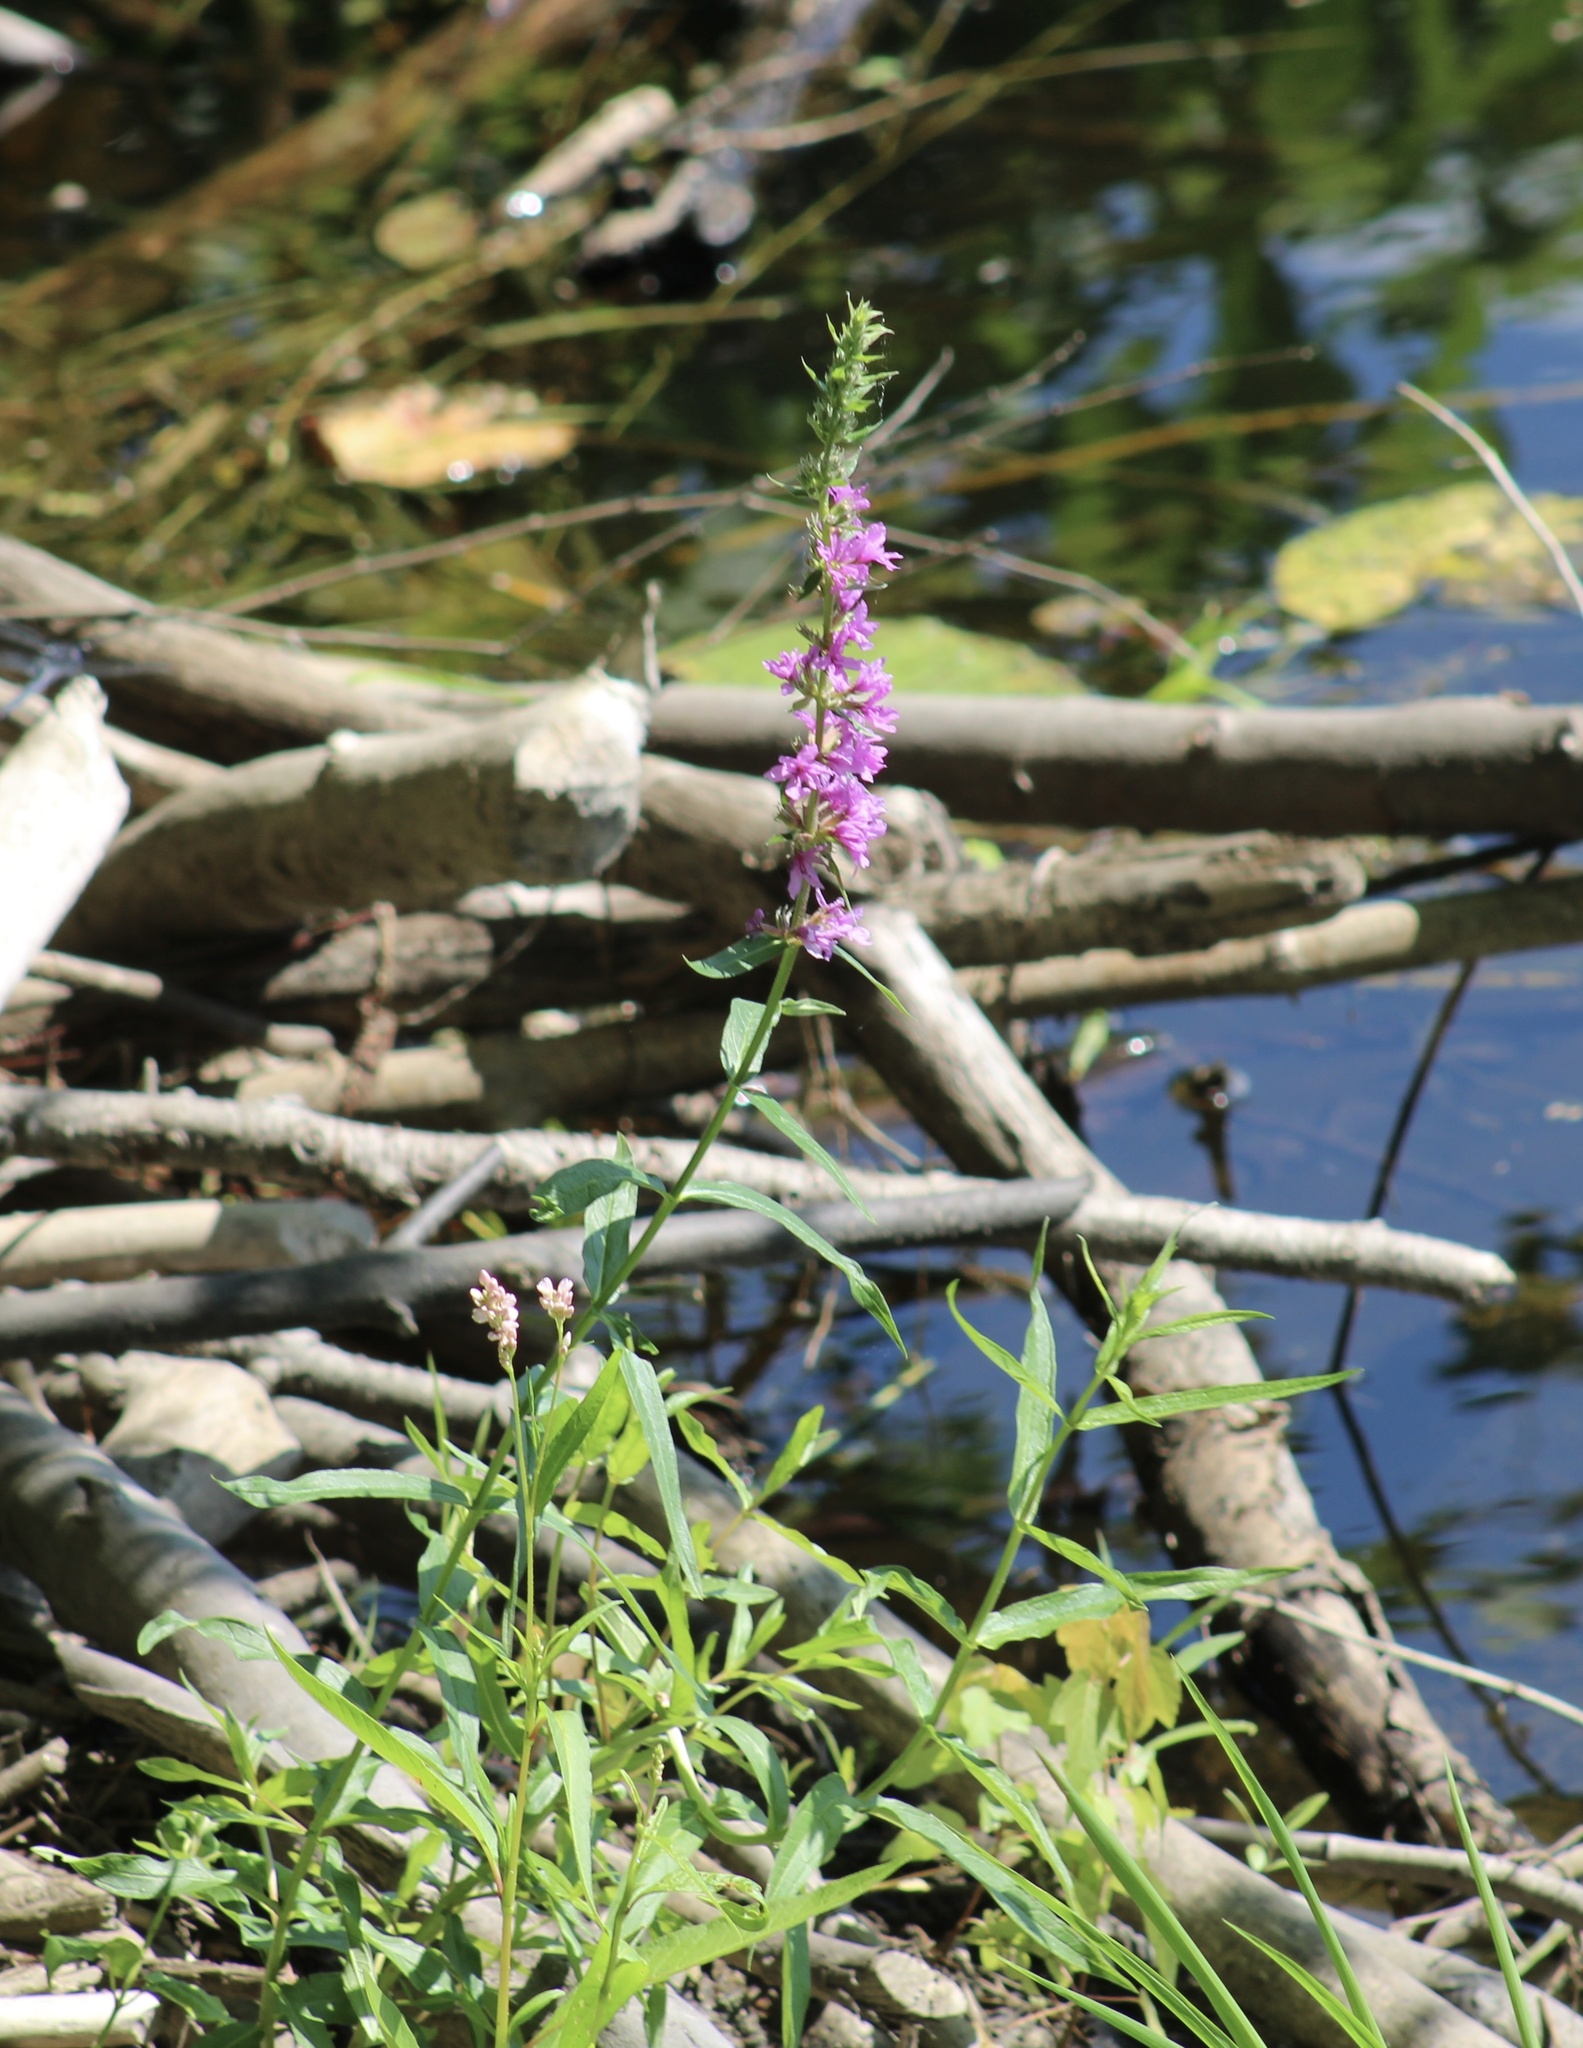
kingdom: Plantae
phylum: Tracheophyta
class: Magnoliopsida
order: Myrtales
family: Lythraceae
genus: Lythrum
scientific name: Lythrum salicaria
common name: Purple loosestrife
